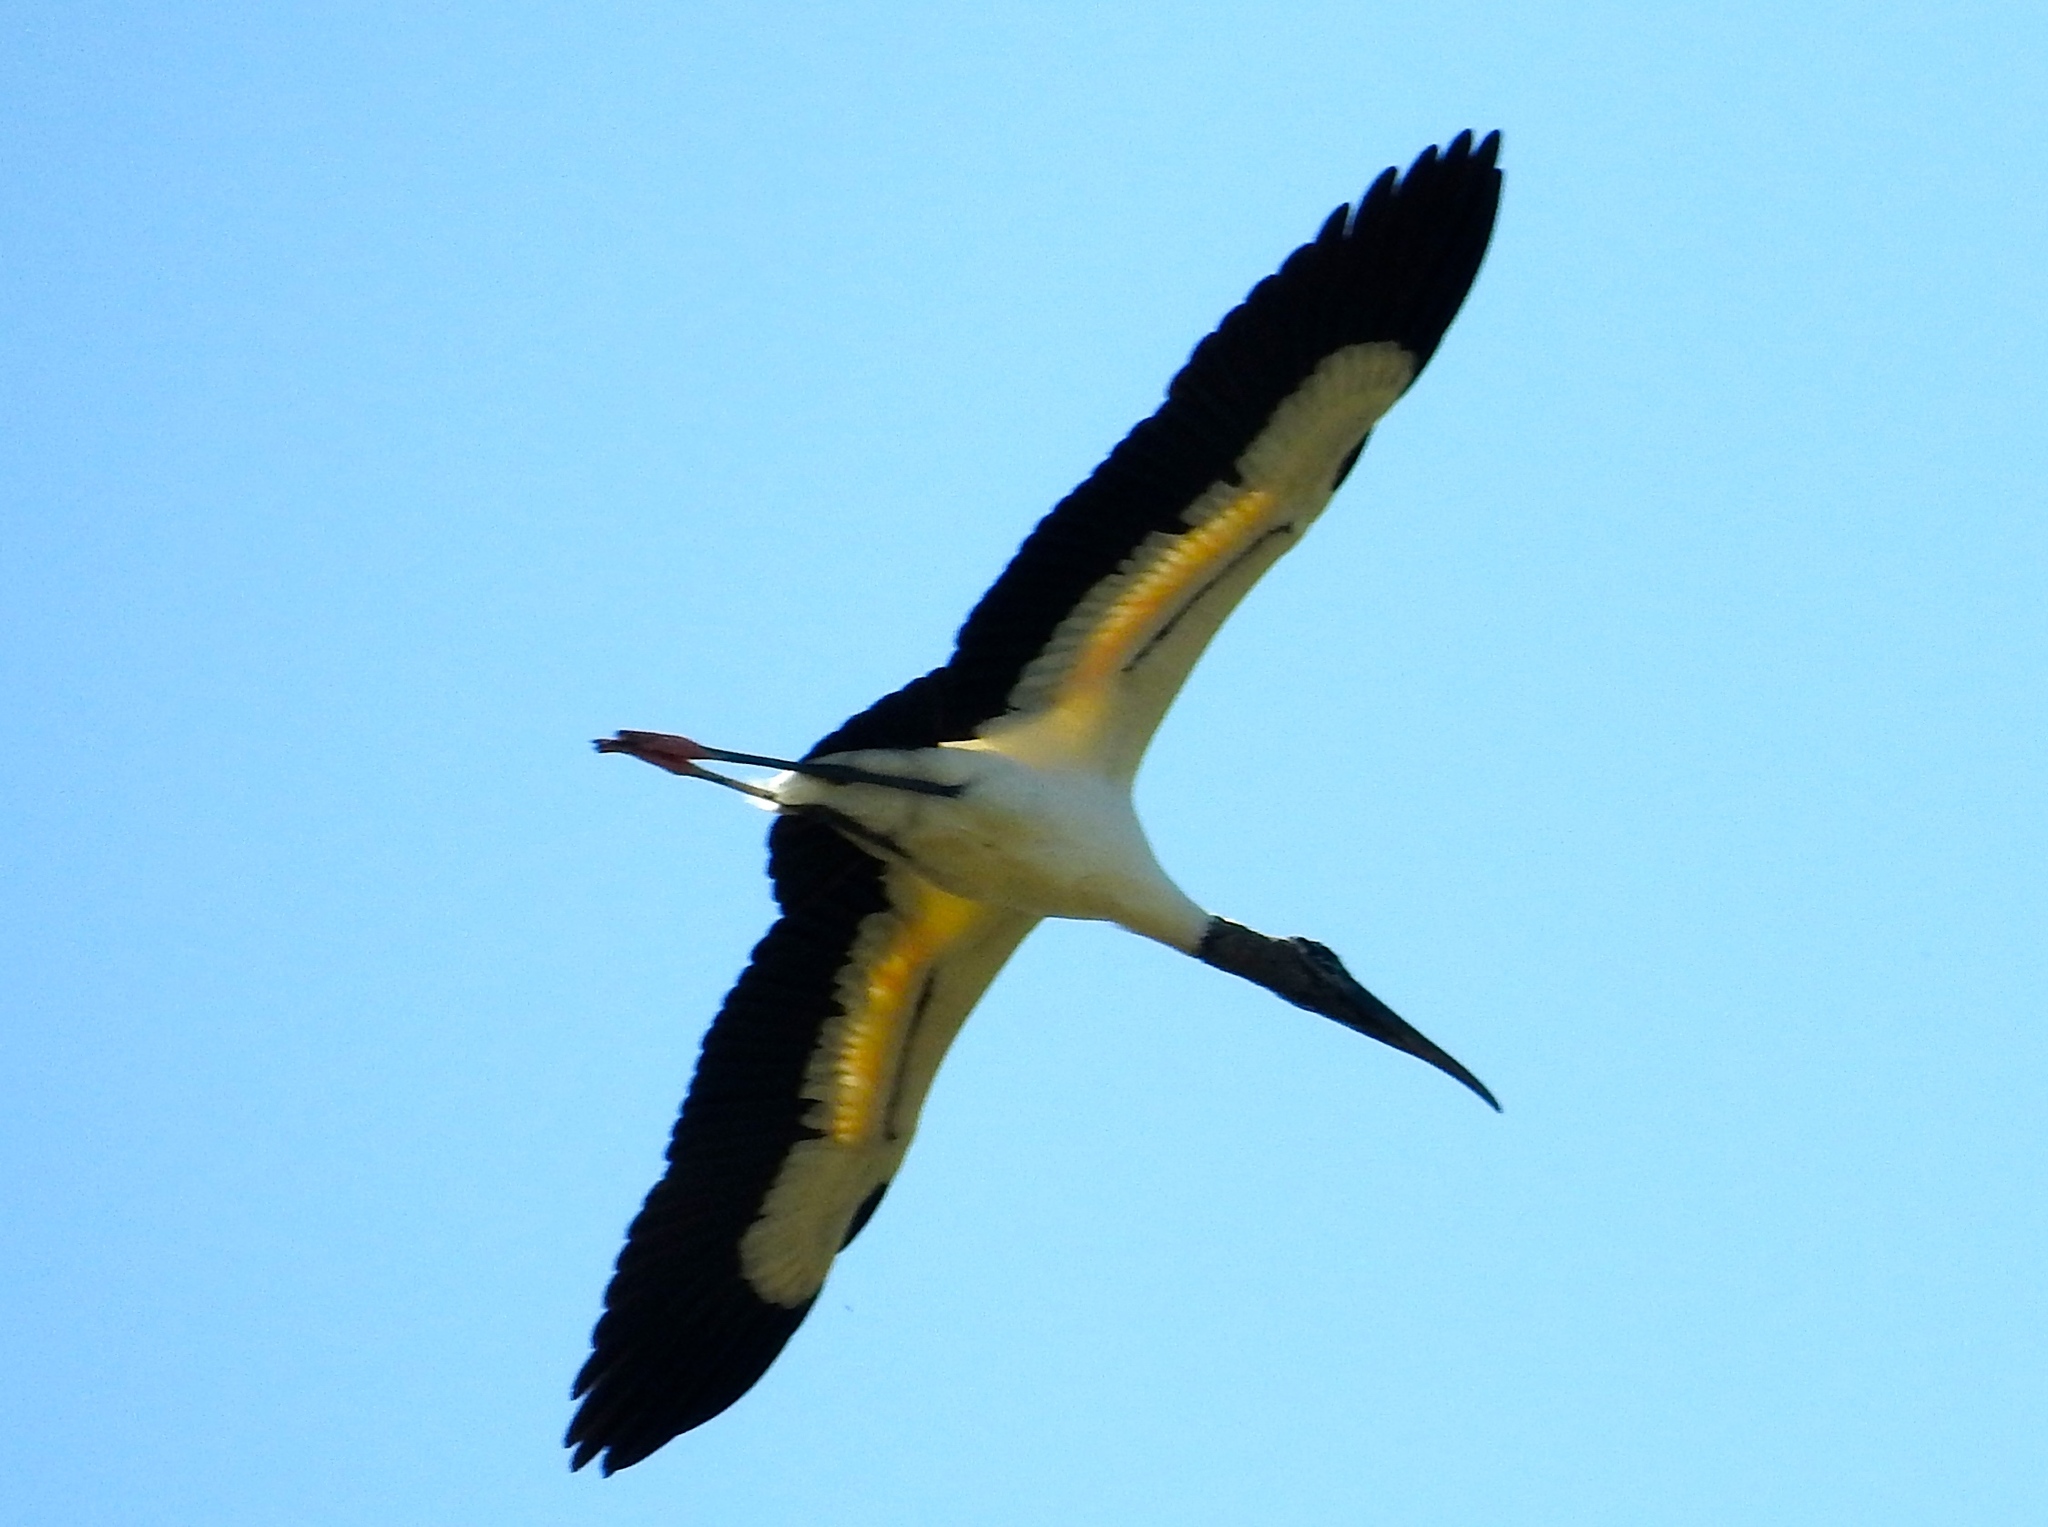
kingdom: Animalia
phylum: Chordata
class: Aves
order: Ciconiiformes
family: Ciconiidae
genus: Mycteria
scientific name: Mycteria americana
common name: Wood stork
